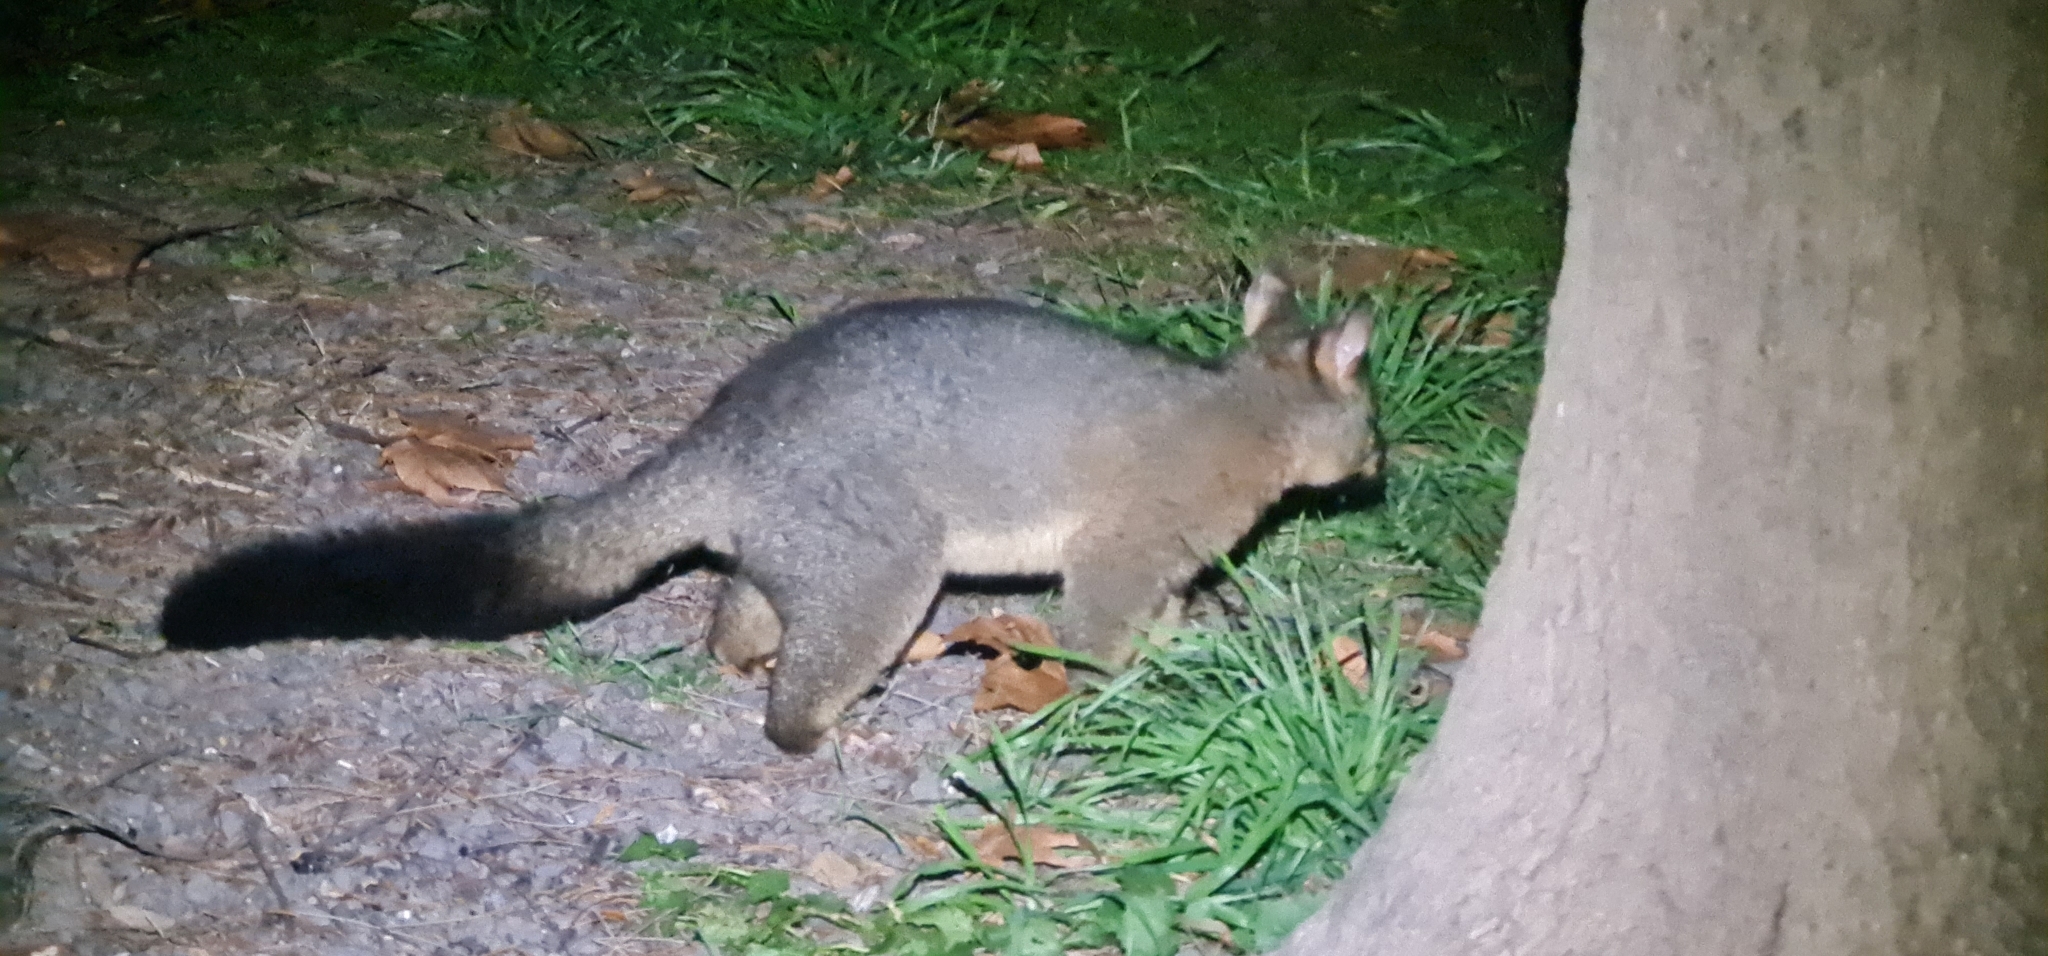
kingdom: Animalia
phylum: Chordata
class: Mammalia
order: Diprotodontia
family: Phalangeridae
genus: Trichosurus
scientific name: Trichosurus vulpecula
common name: Common brushtail
